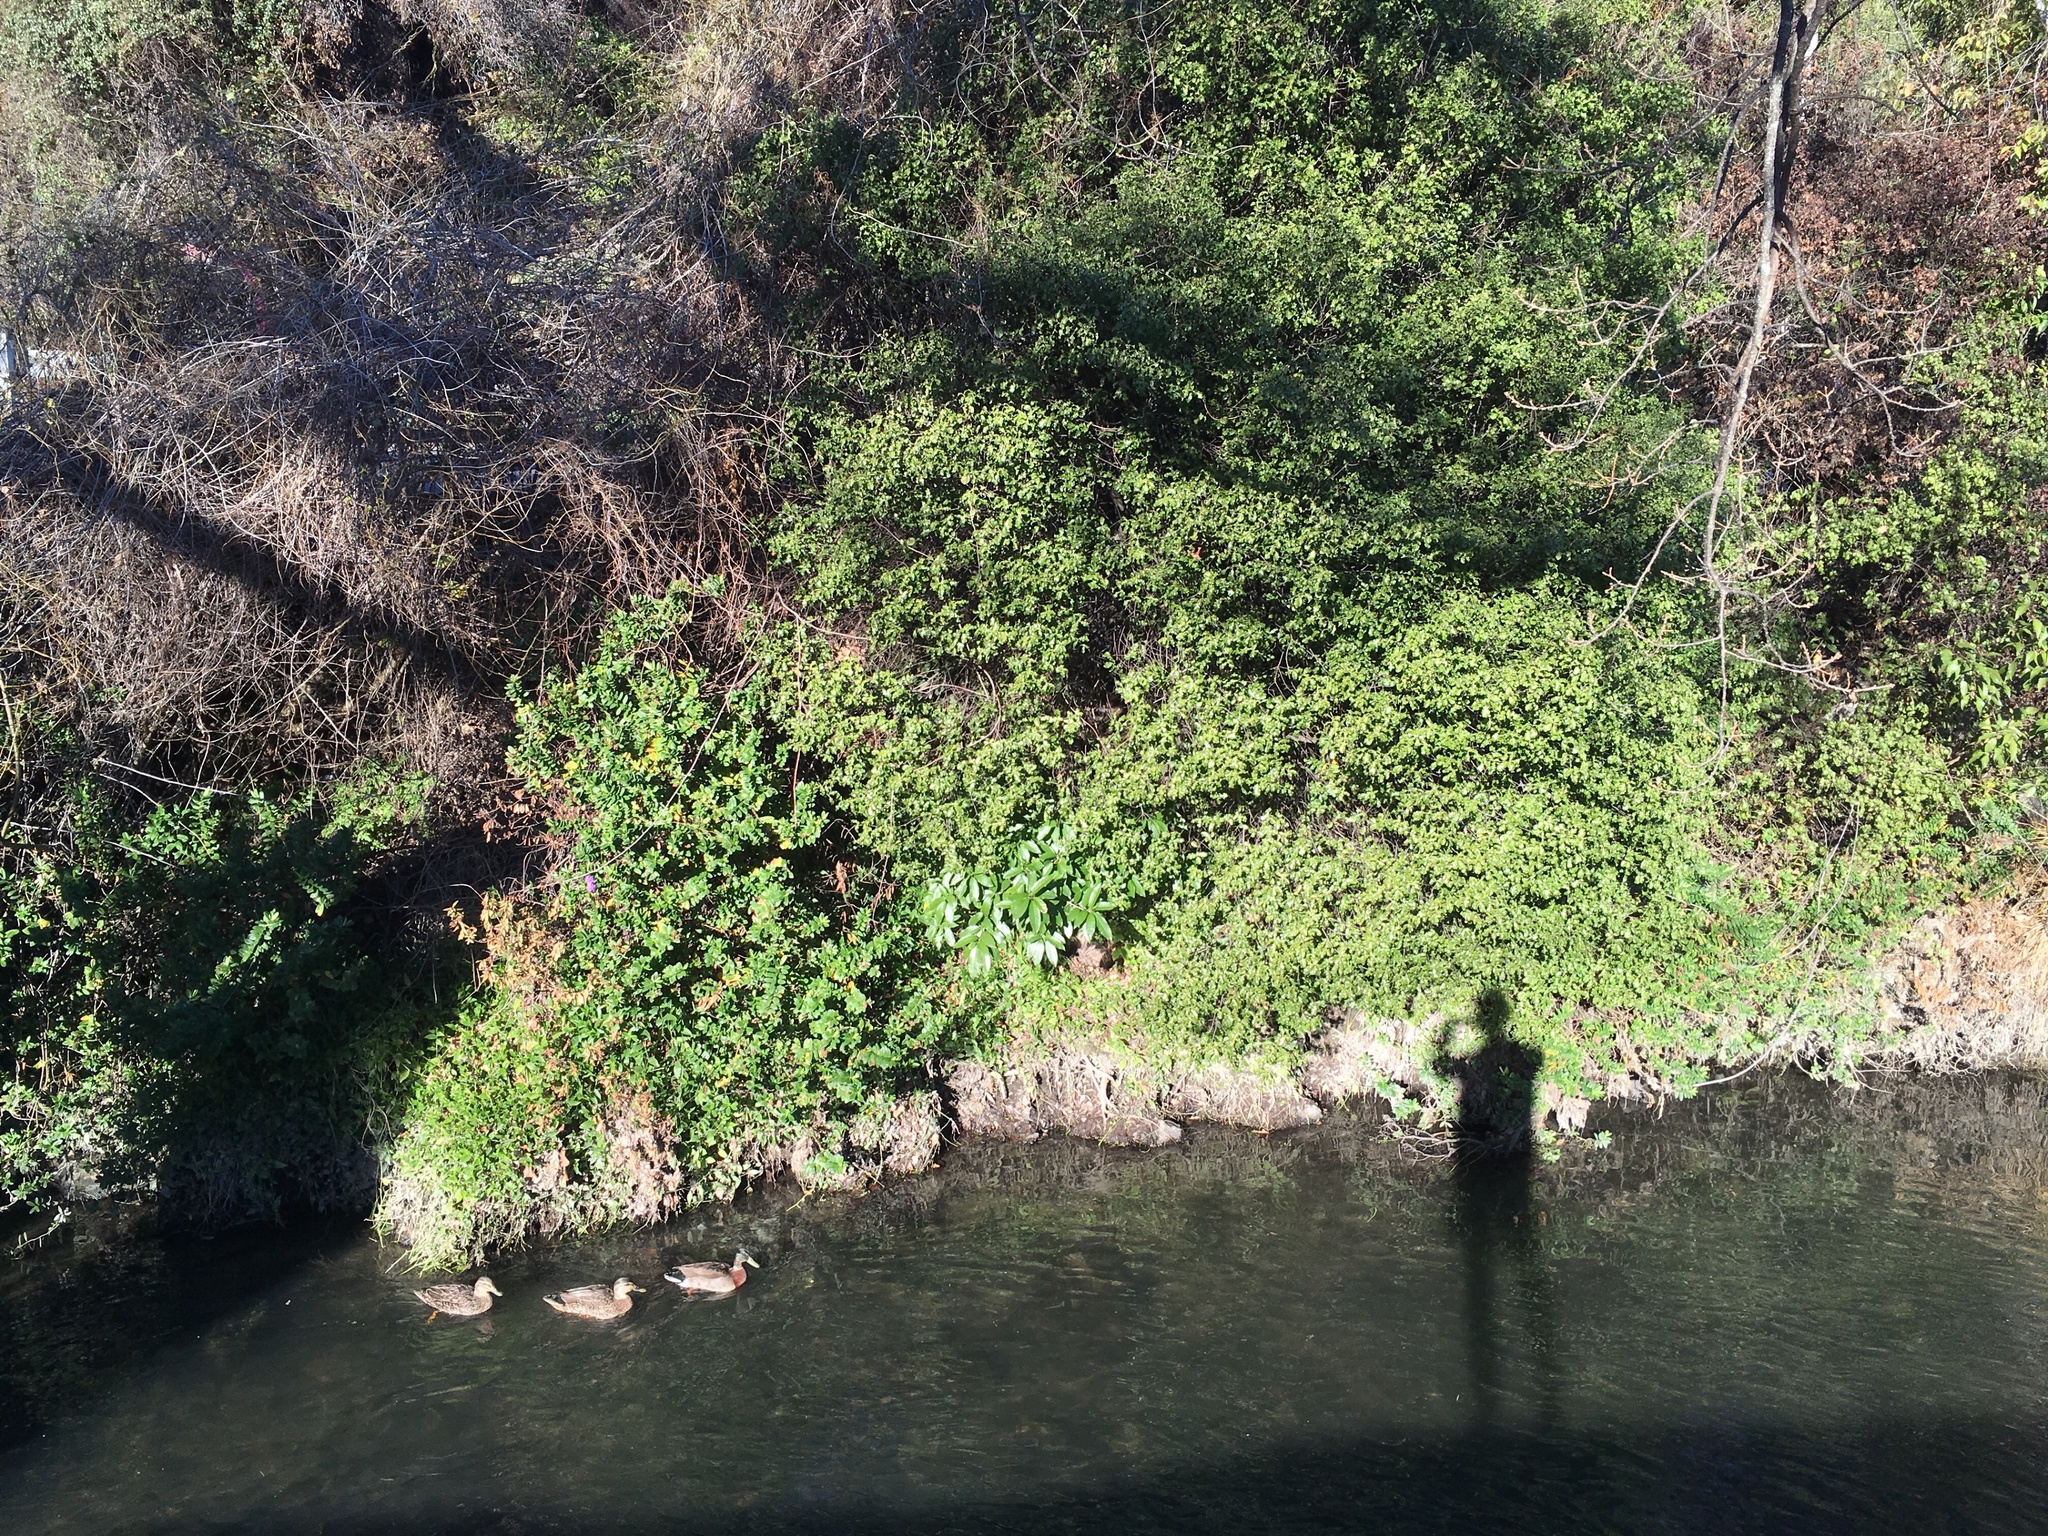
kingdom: Plantae
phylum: Tracheophyta
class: Magnoliopsida
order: Malpighiales
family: Violaceae
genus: Melicytus
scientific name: Melicytus ramiflorus
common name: Mahoe
